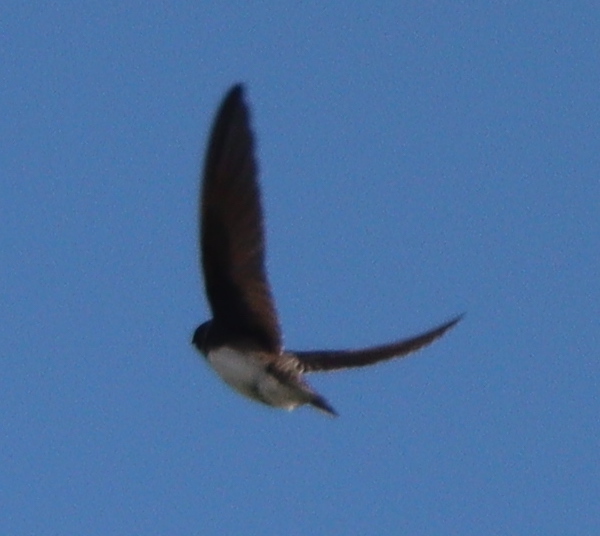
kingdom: Animalia
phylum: Chordata
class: Aves
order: Passeriformes
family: Hirundinidae
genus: Hirundo
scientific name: Hirundo rustica
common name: Barn swallow
